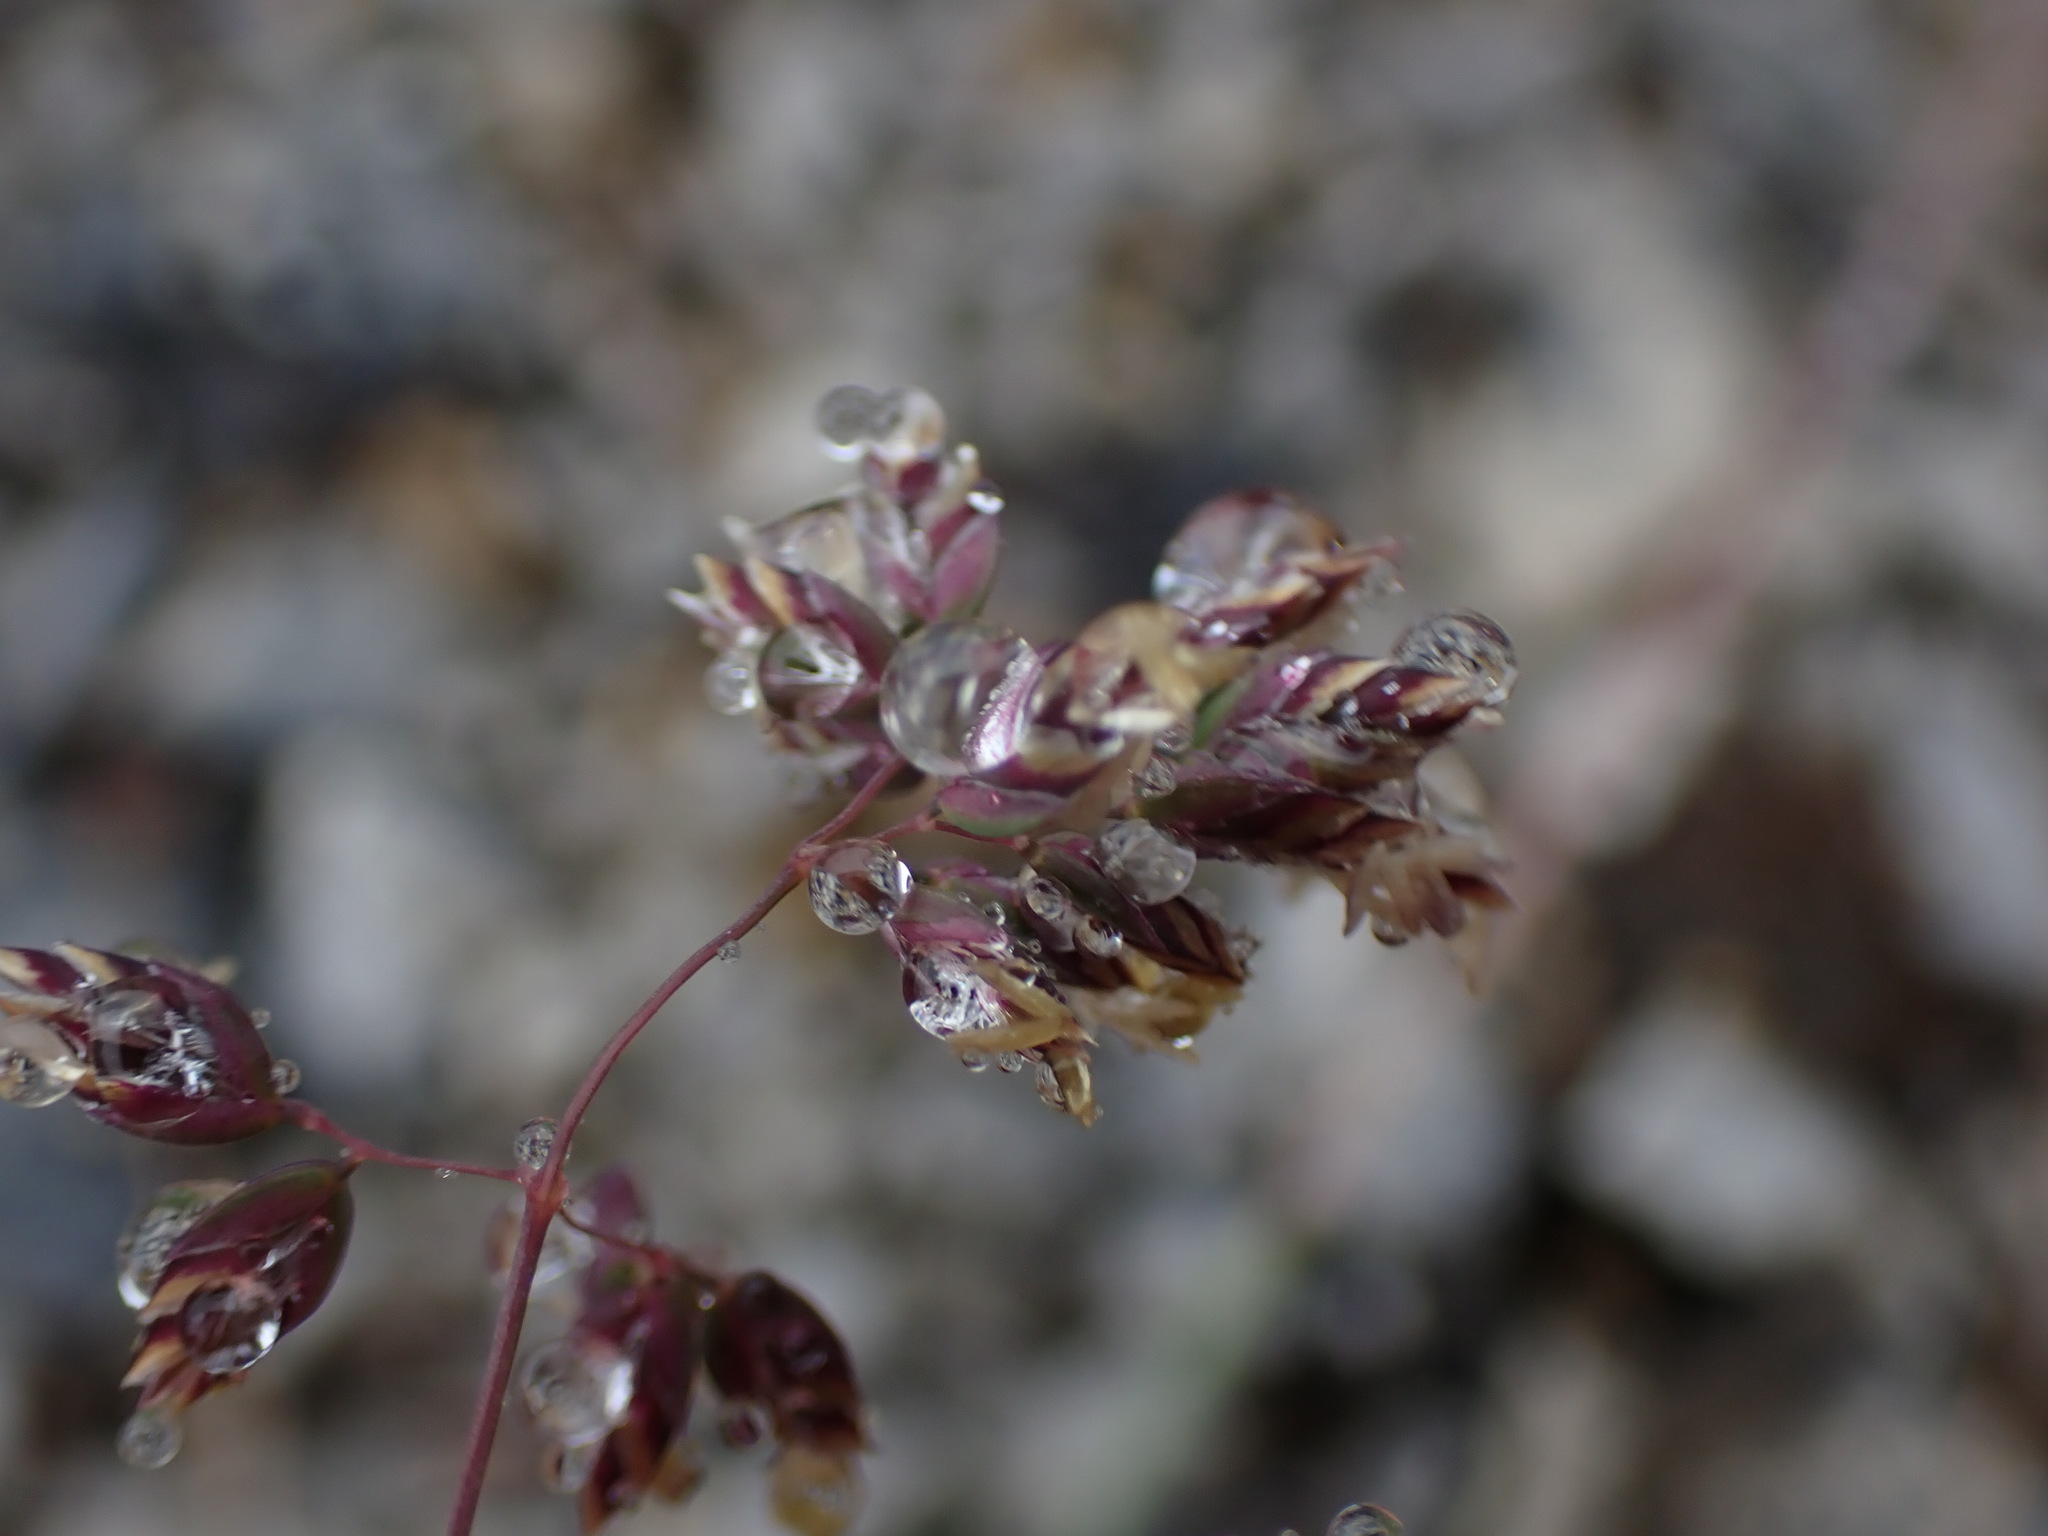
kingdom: Plantae
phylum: Tracheophyta
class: Liliopsida
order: Poales
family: Poaceae
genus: Poa
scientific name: Poa alpina
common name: Alpine bluegrass
